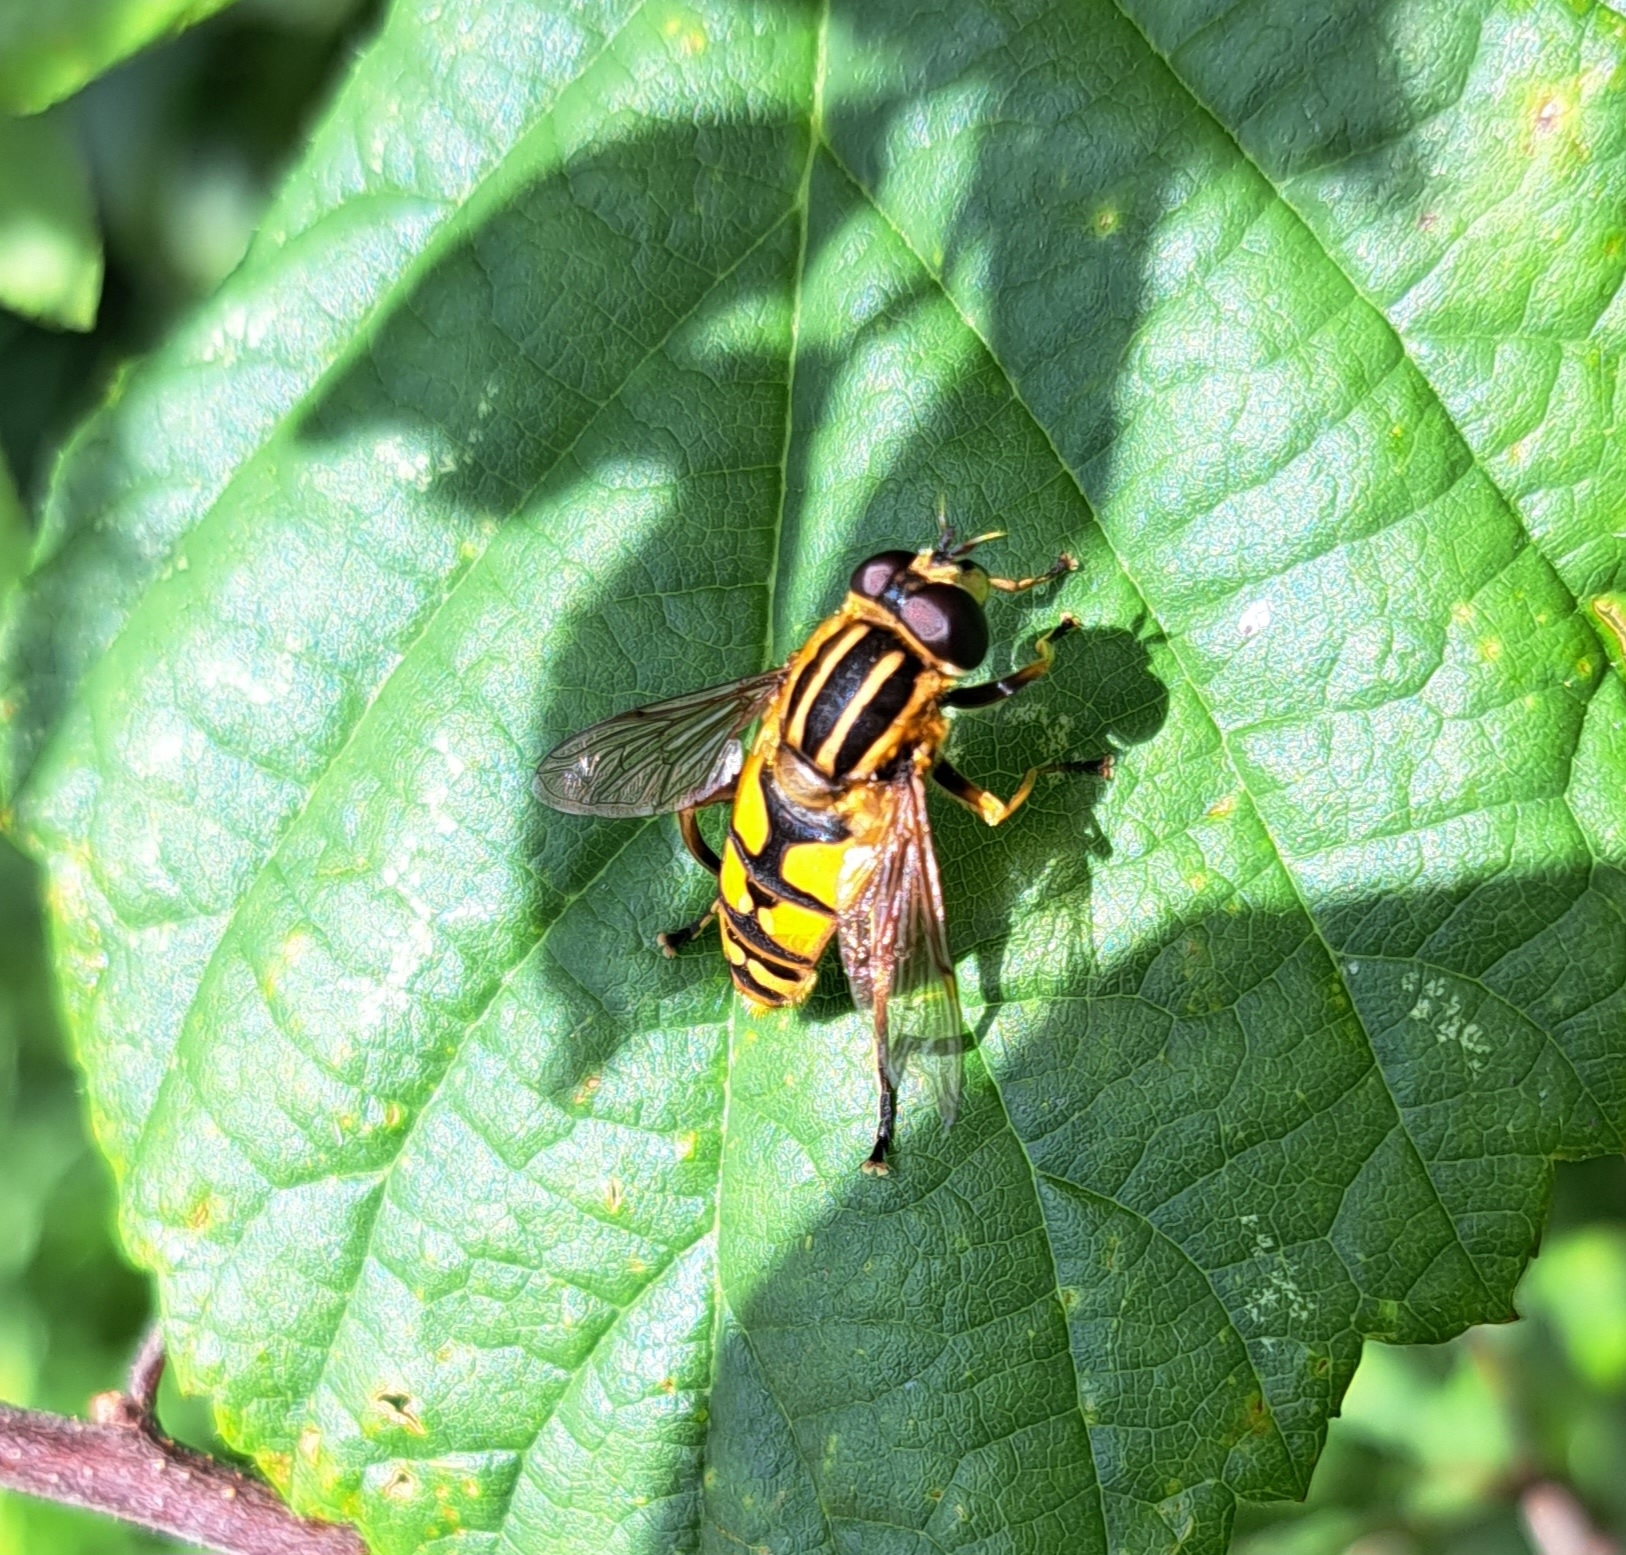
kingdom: Animalia
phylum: Arthropoda
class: Insecta
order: Diptera
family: Syrphidae
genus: Helophilus
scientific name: Helophilus pendulus
